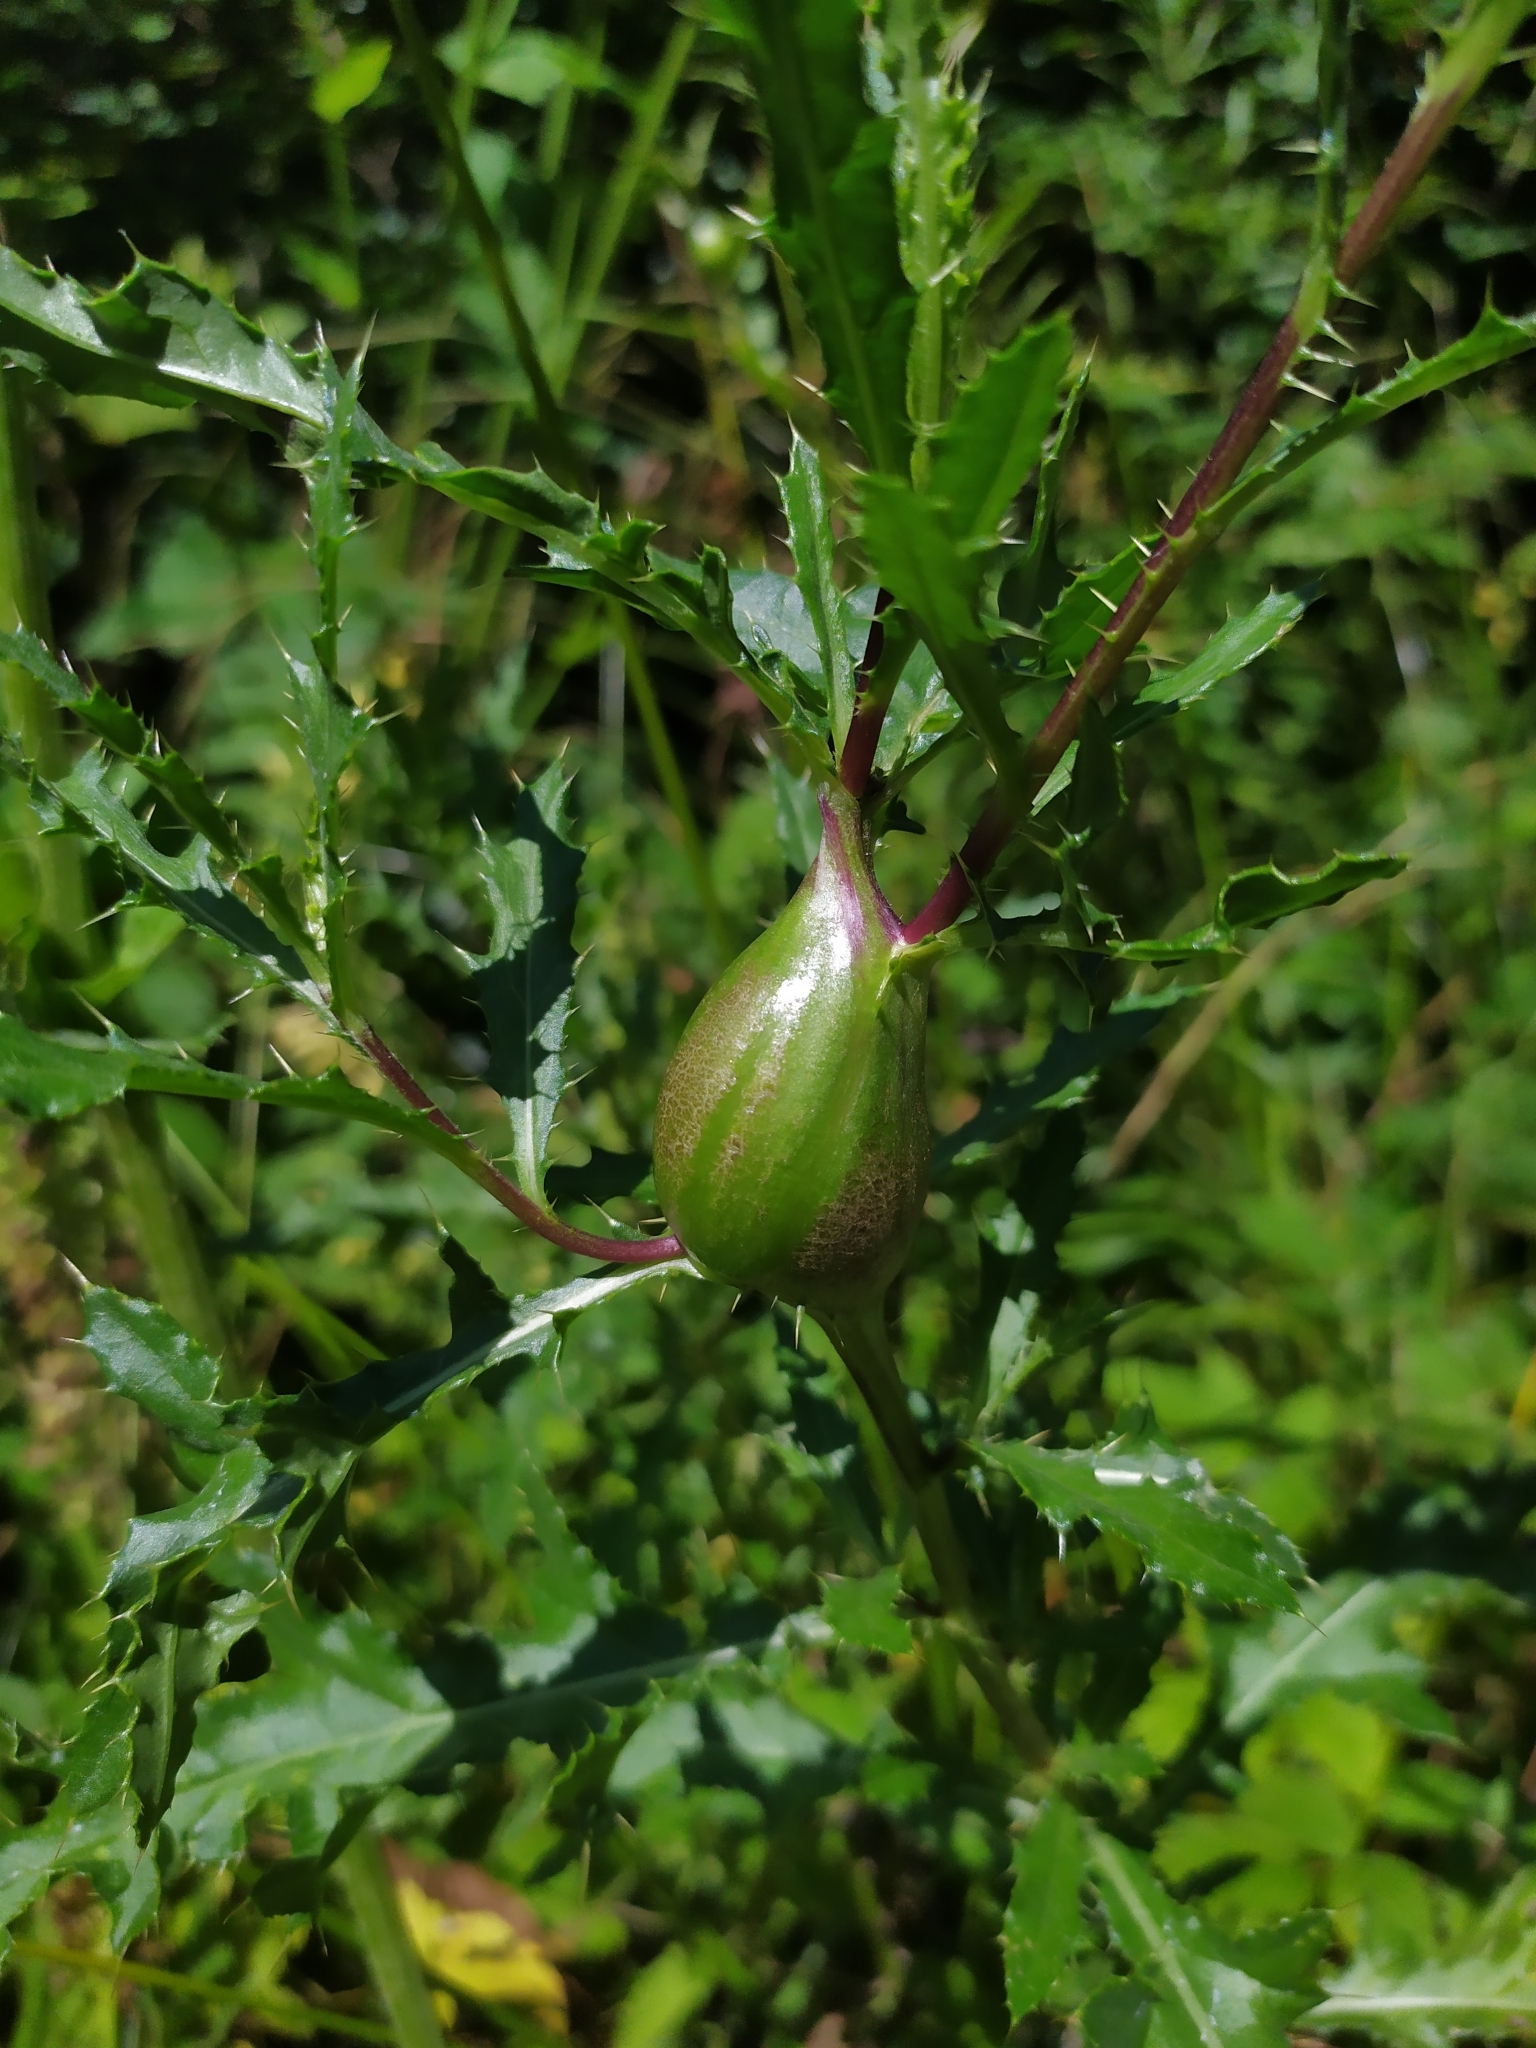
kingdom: Animalia
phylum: Arthropoda
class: Insecta
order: Diptera
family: Tephritidae
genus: Urophora
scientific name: Urophora cardui
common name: Fruit fly
